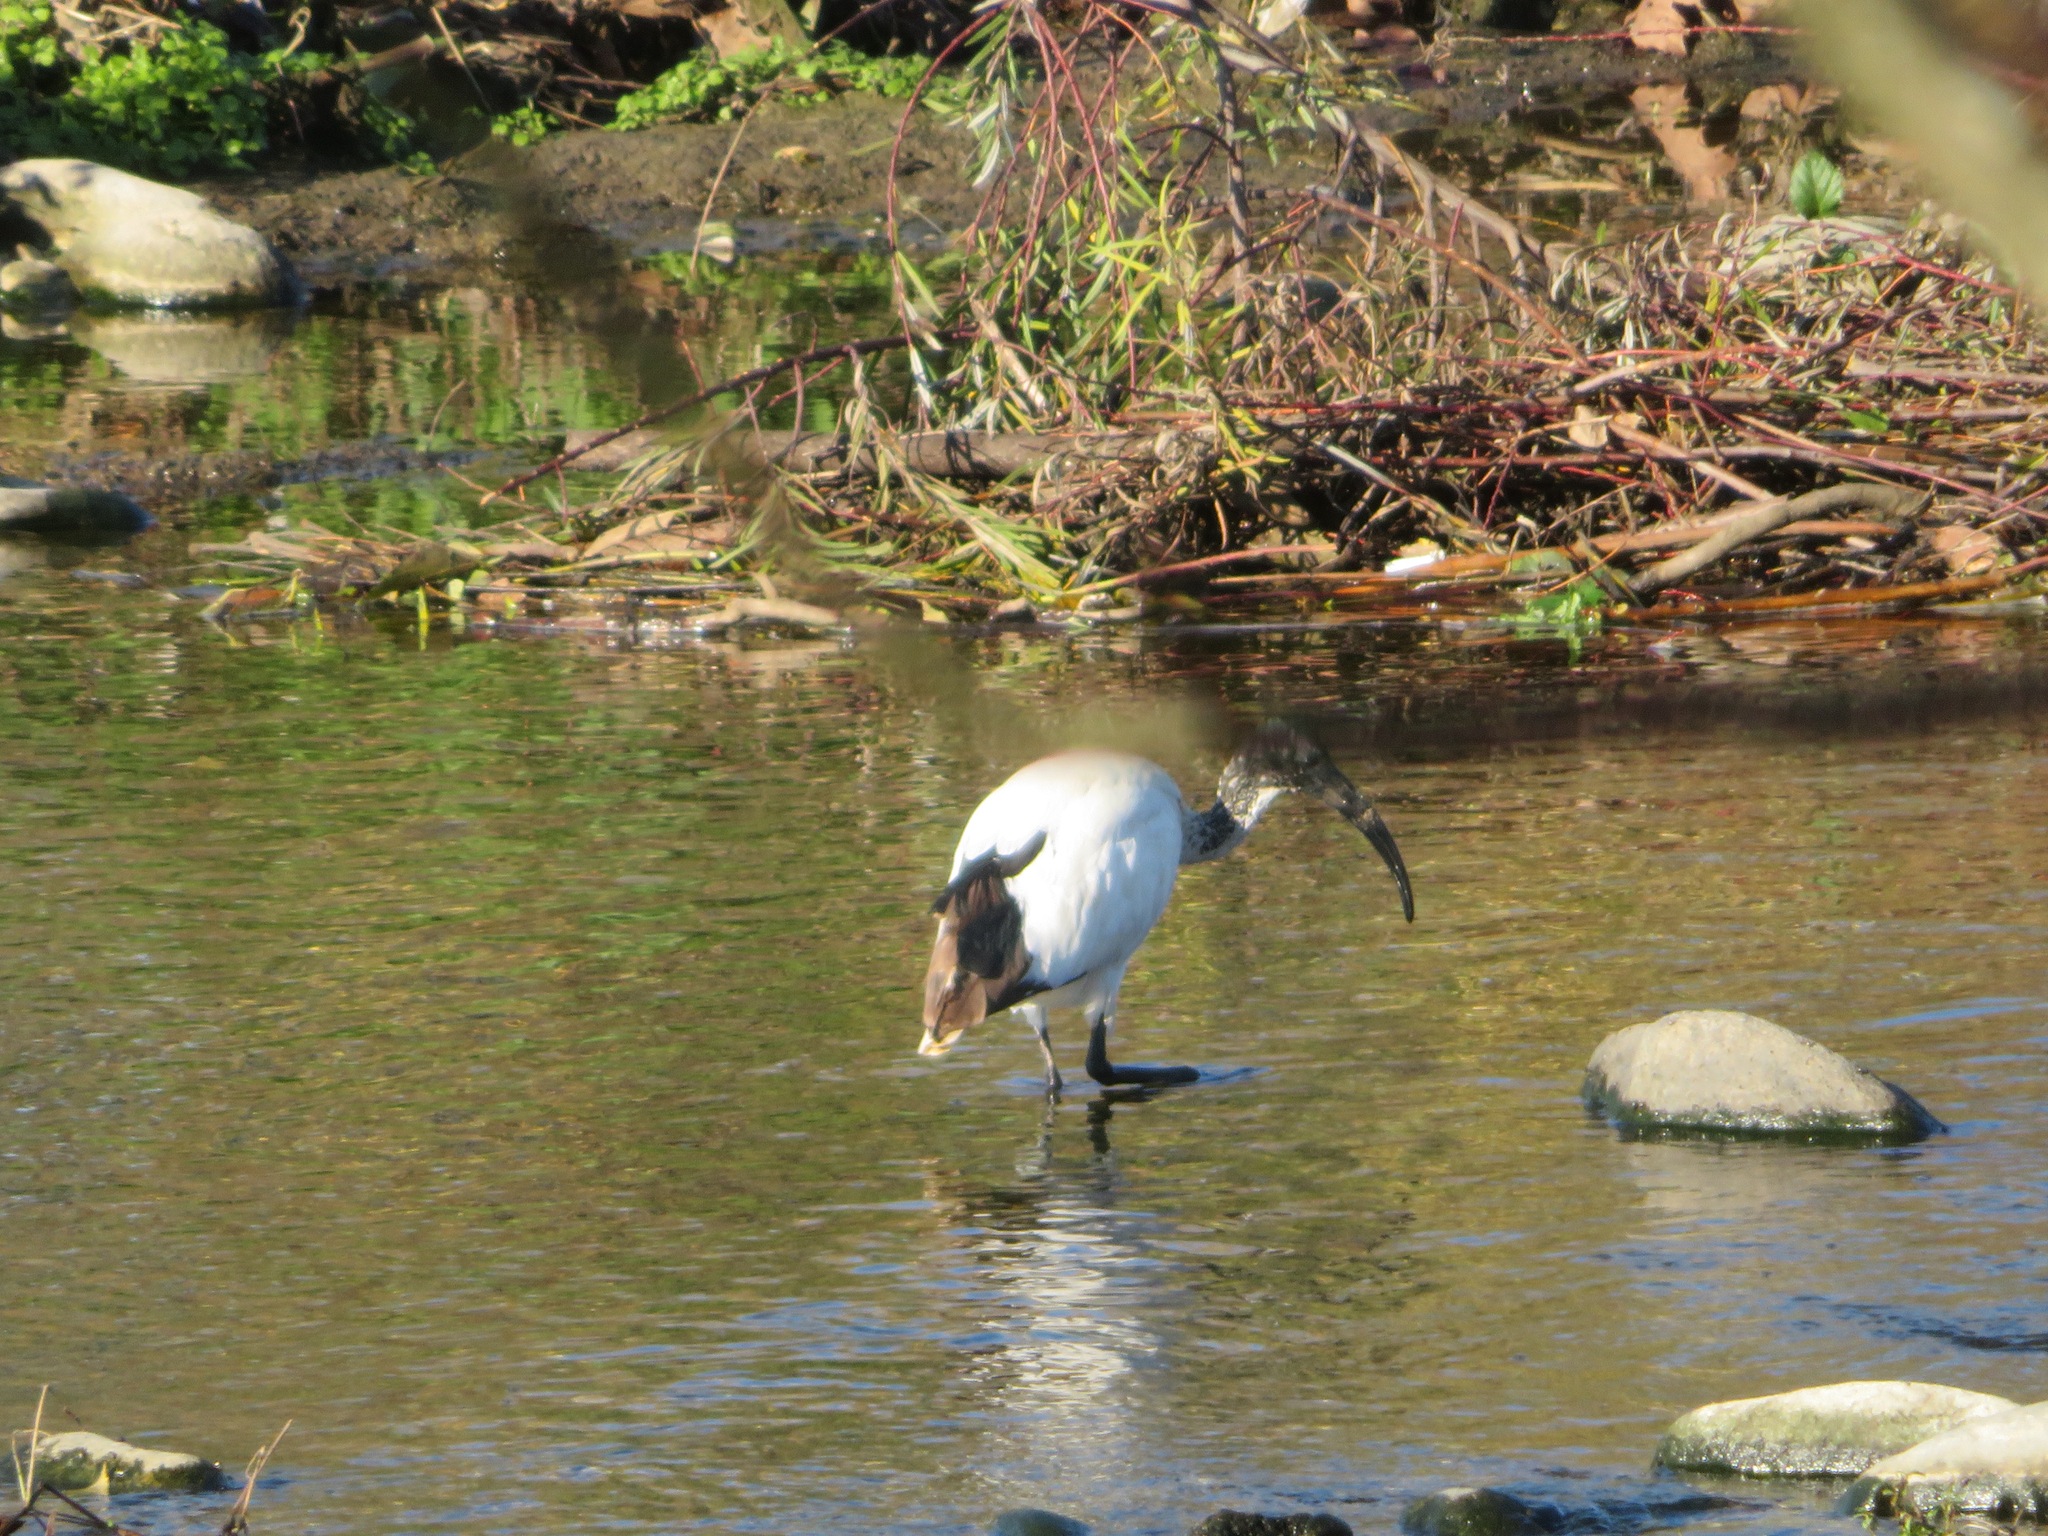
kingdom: Animalia
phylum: Chordata
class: Aves
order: Pelecaniformes
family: Threskiornithidae
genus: Threskiornis
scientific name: Threskiornis aethiopicus
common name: Sacred ibis
